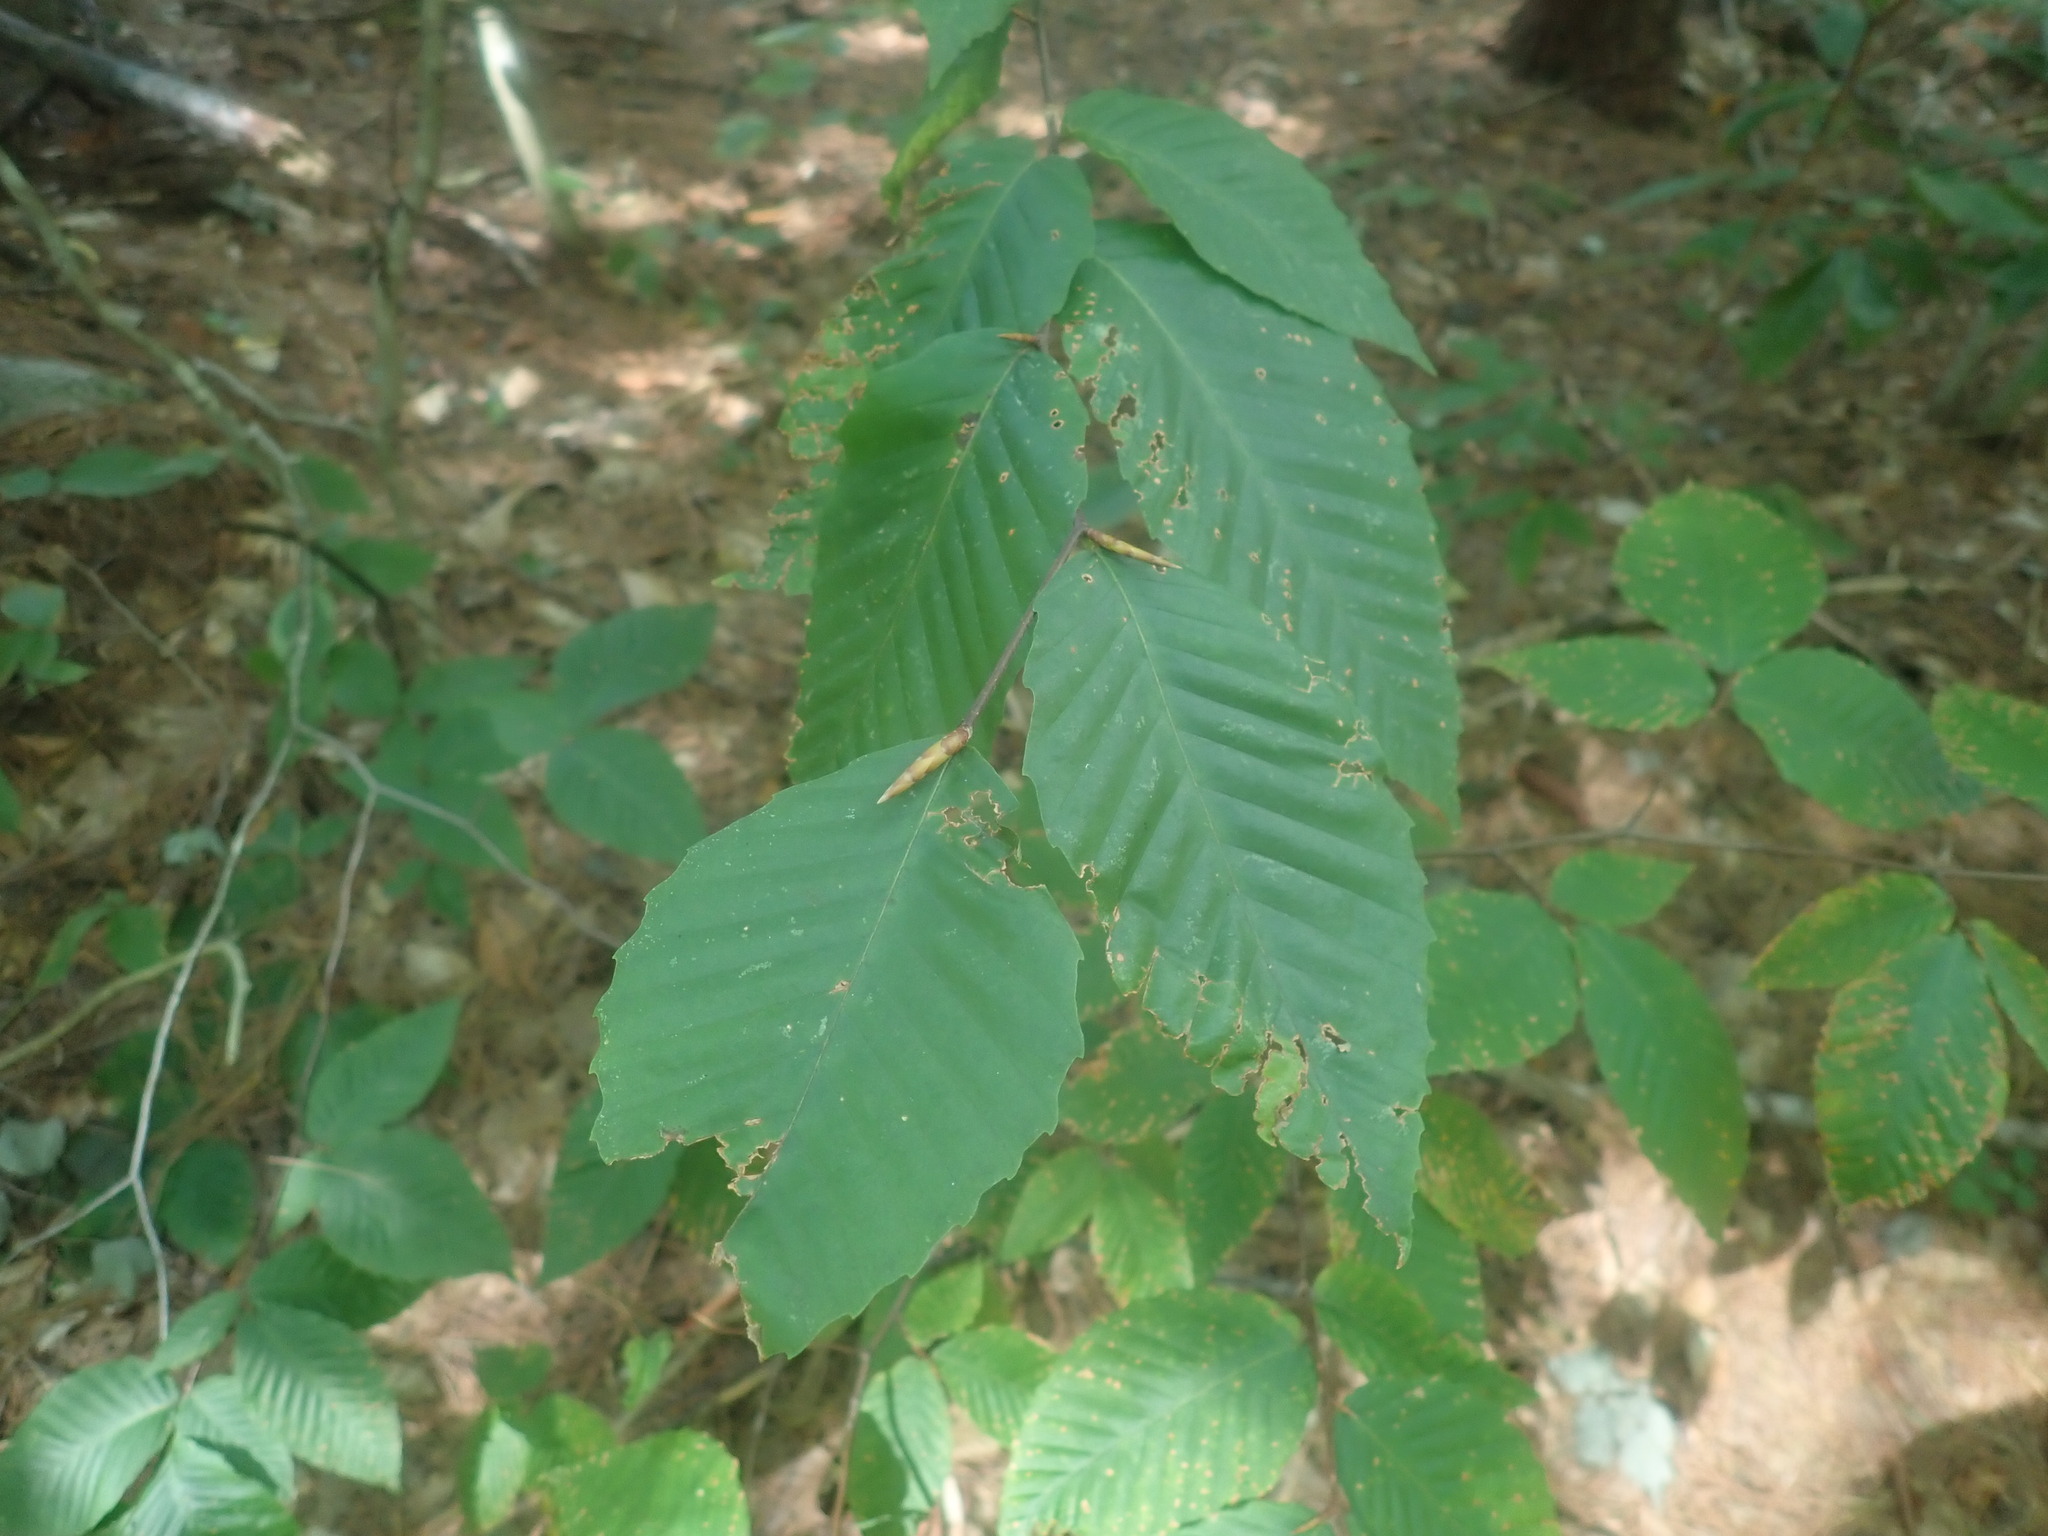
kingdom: Plantae
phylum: Tracheophyta
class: Magnoliopsida
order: Fagales
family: Fagaceae
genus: Fagus
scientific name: Fagus grandifolia
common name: American beech
